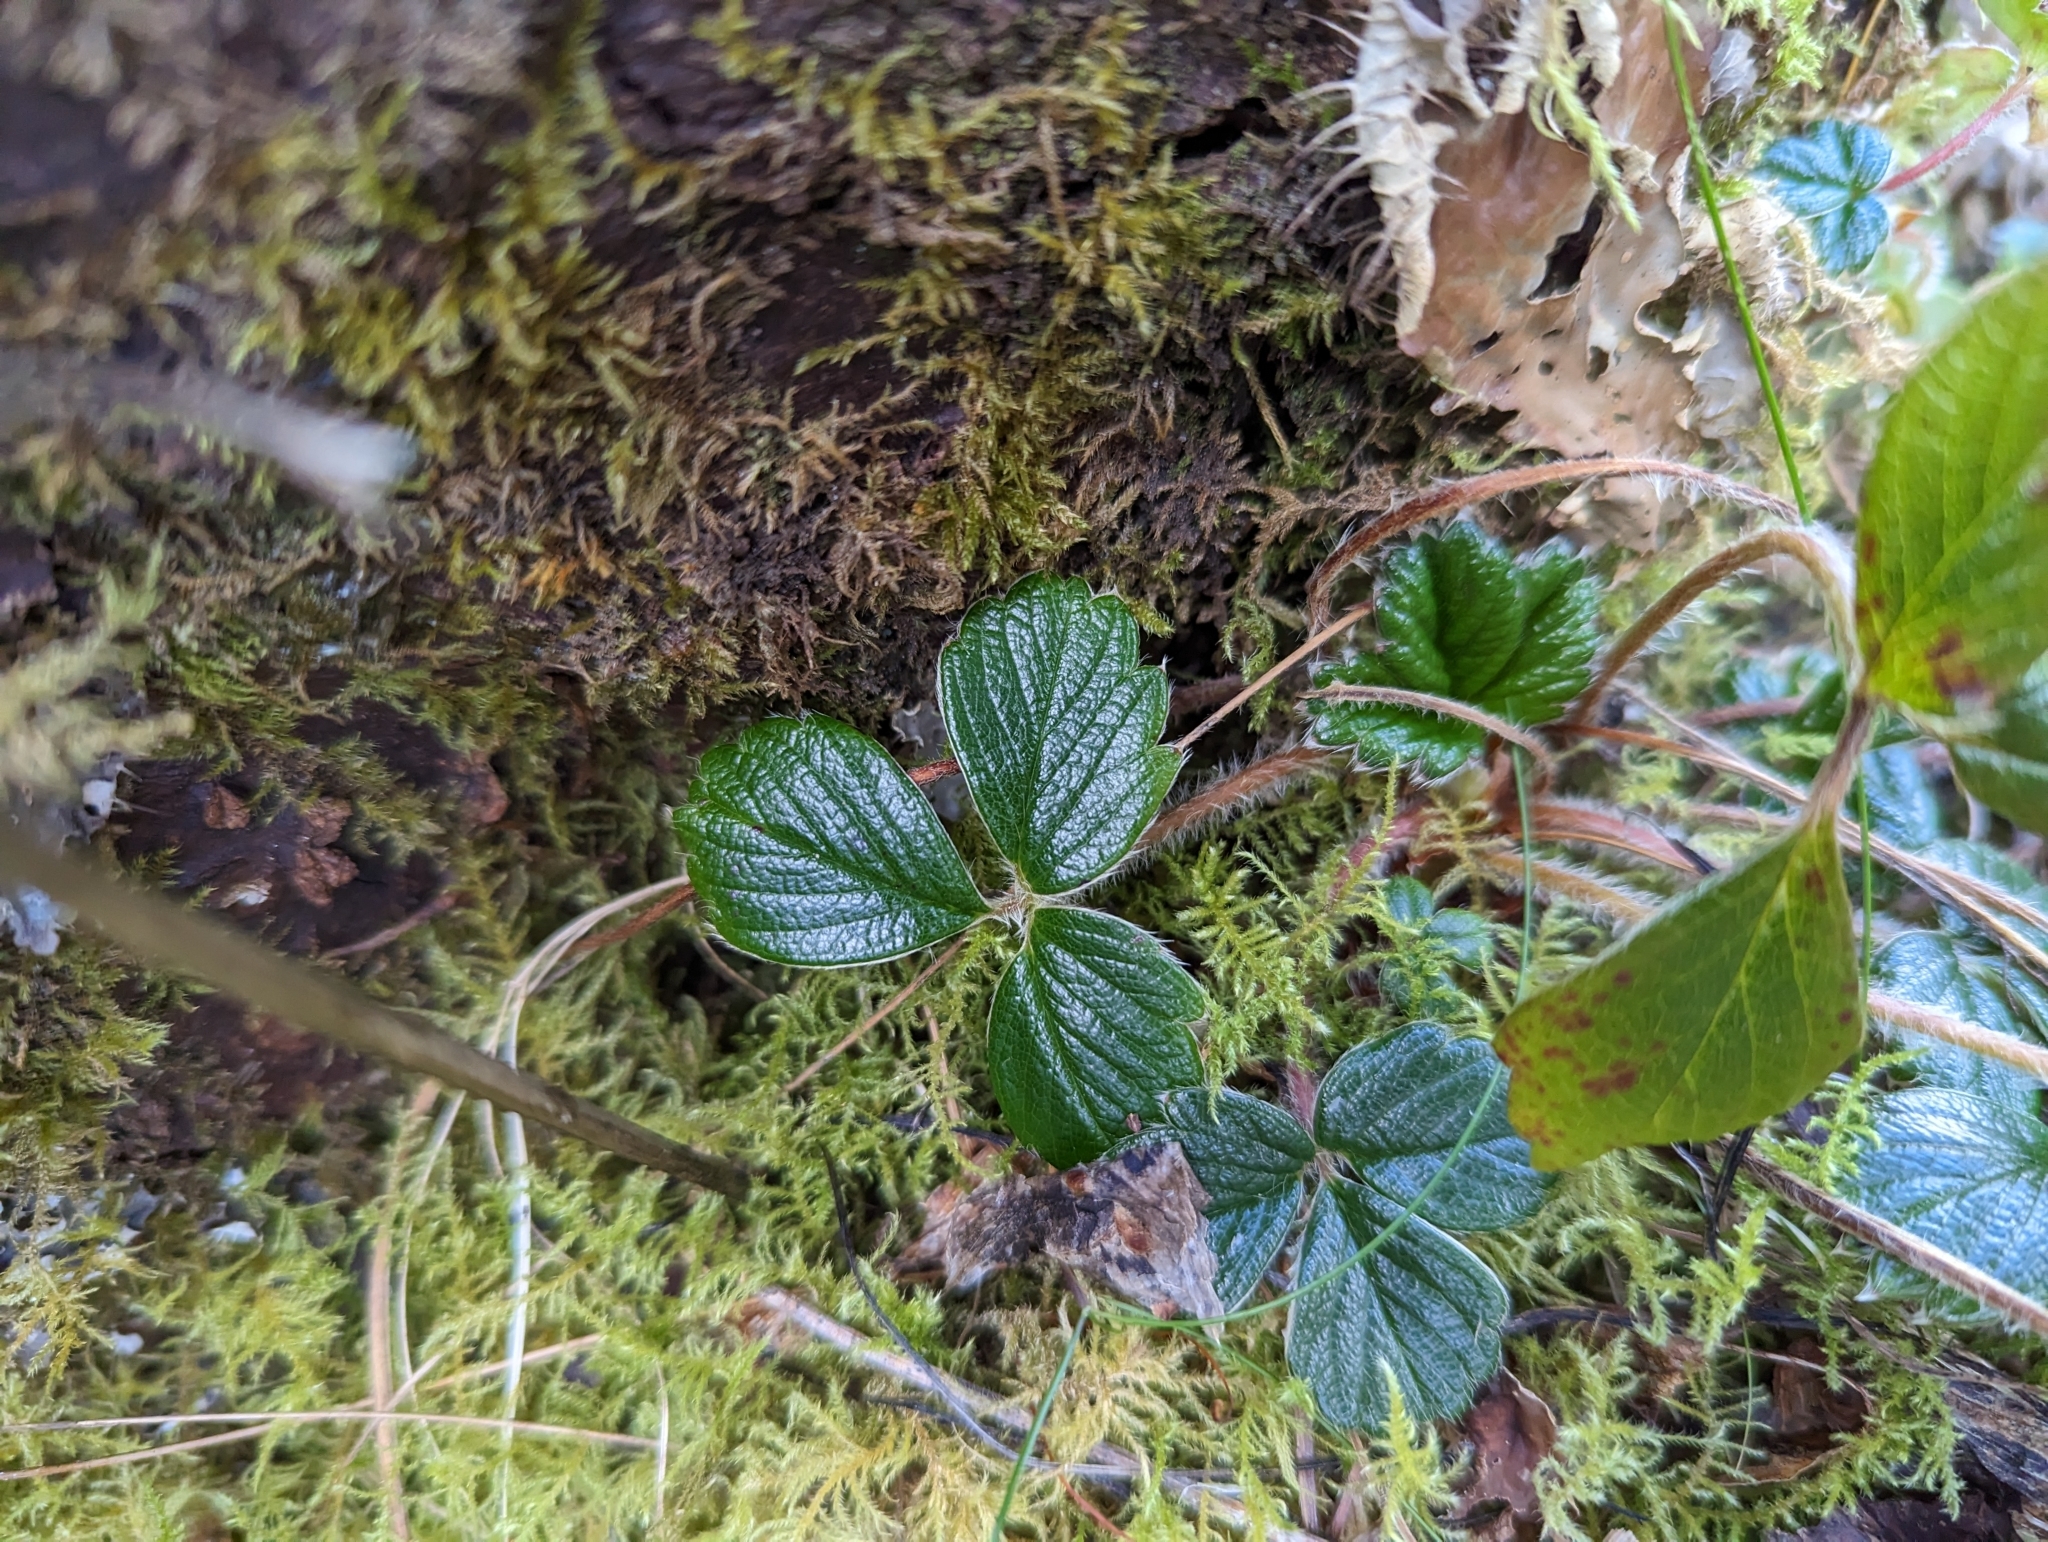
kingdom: Plantae
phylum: Tracheophyta
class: Magnoliopsida
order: Rosales
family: Rosaceae
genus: Fragaria
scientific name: Fragaria chiloensis
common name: Beach strawberry
